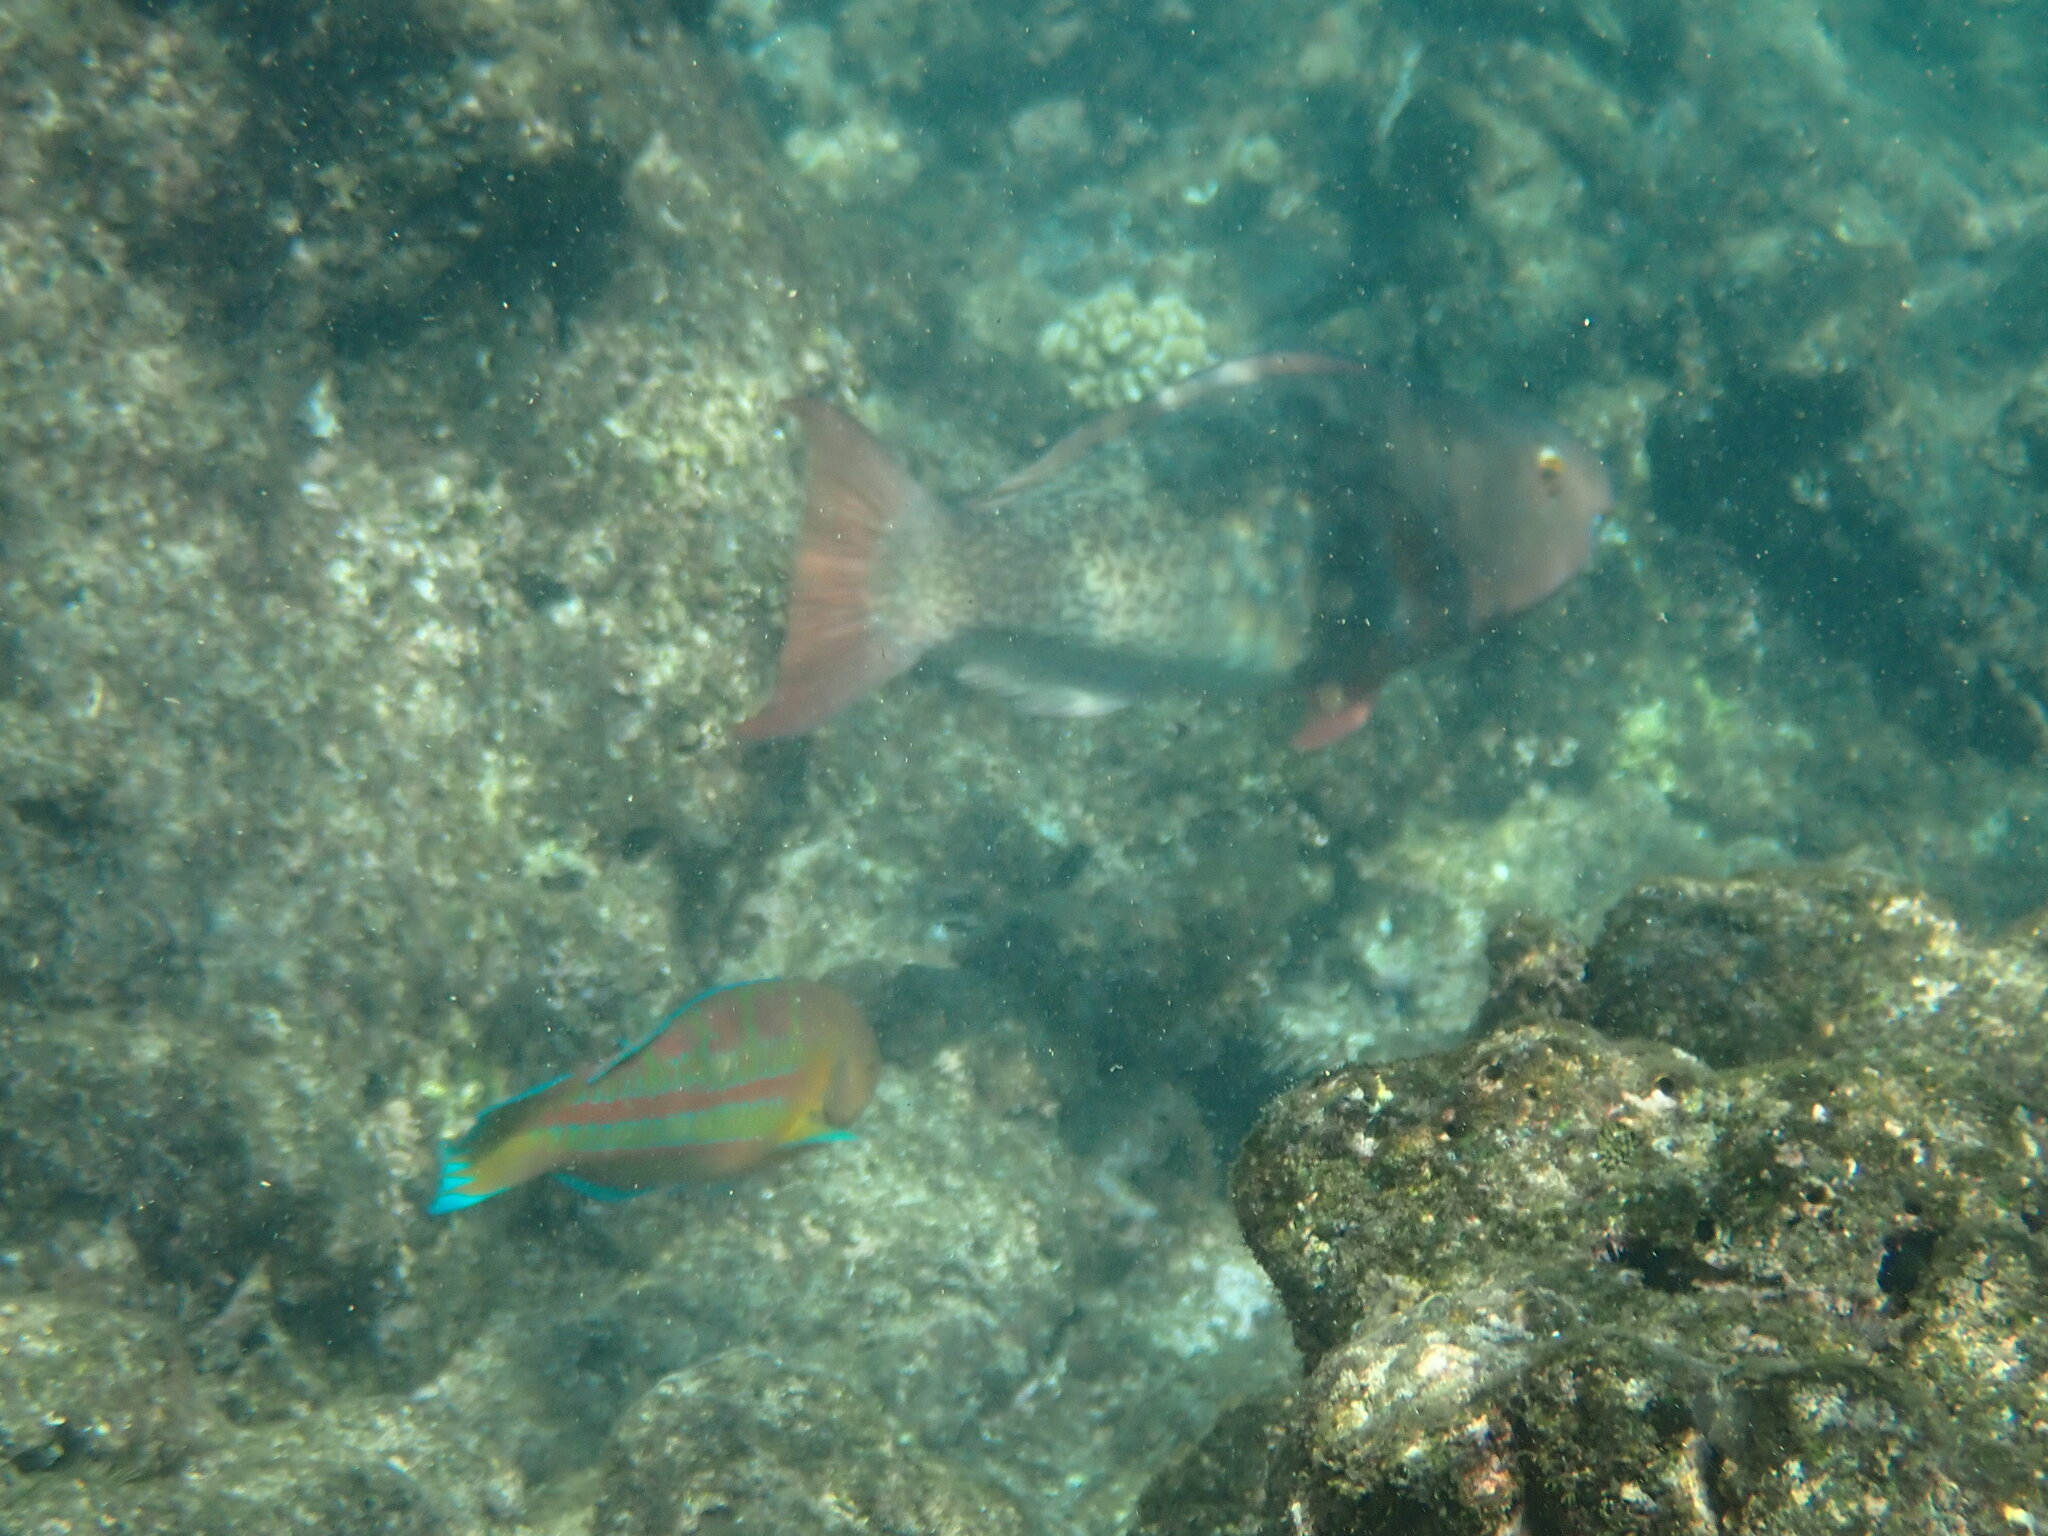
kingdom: Animalia
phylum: Chordata
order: Perciformes
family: Scaridae
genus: Scarus
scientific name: Scarus rubroviolaceus
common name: Ember parrotfish
